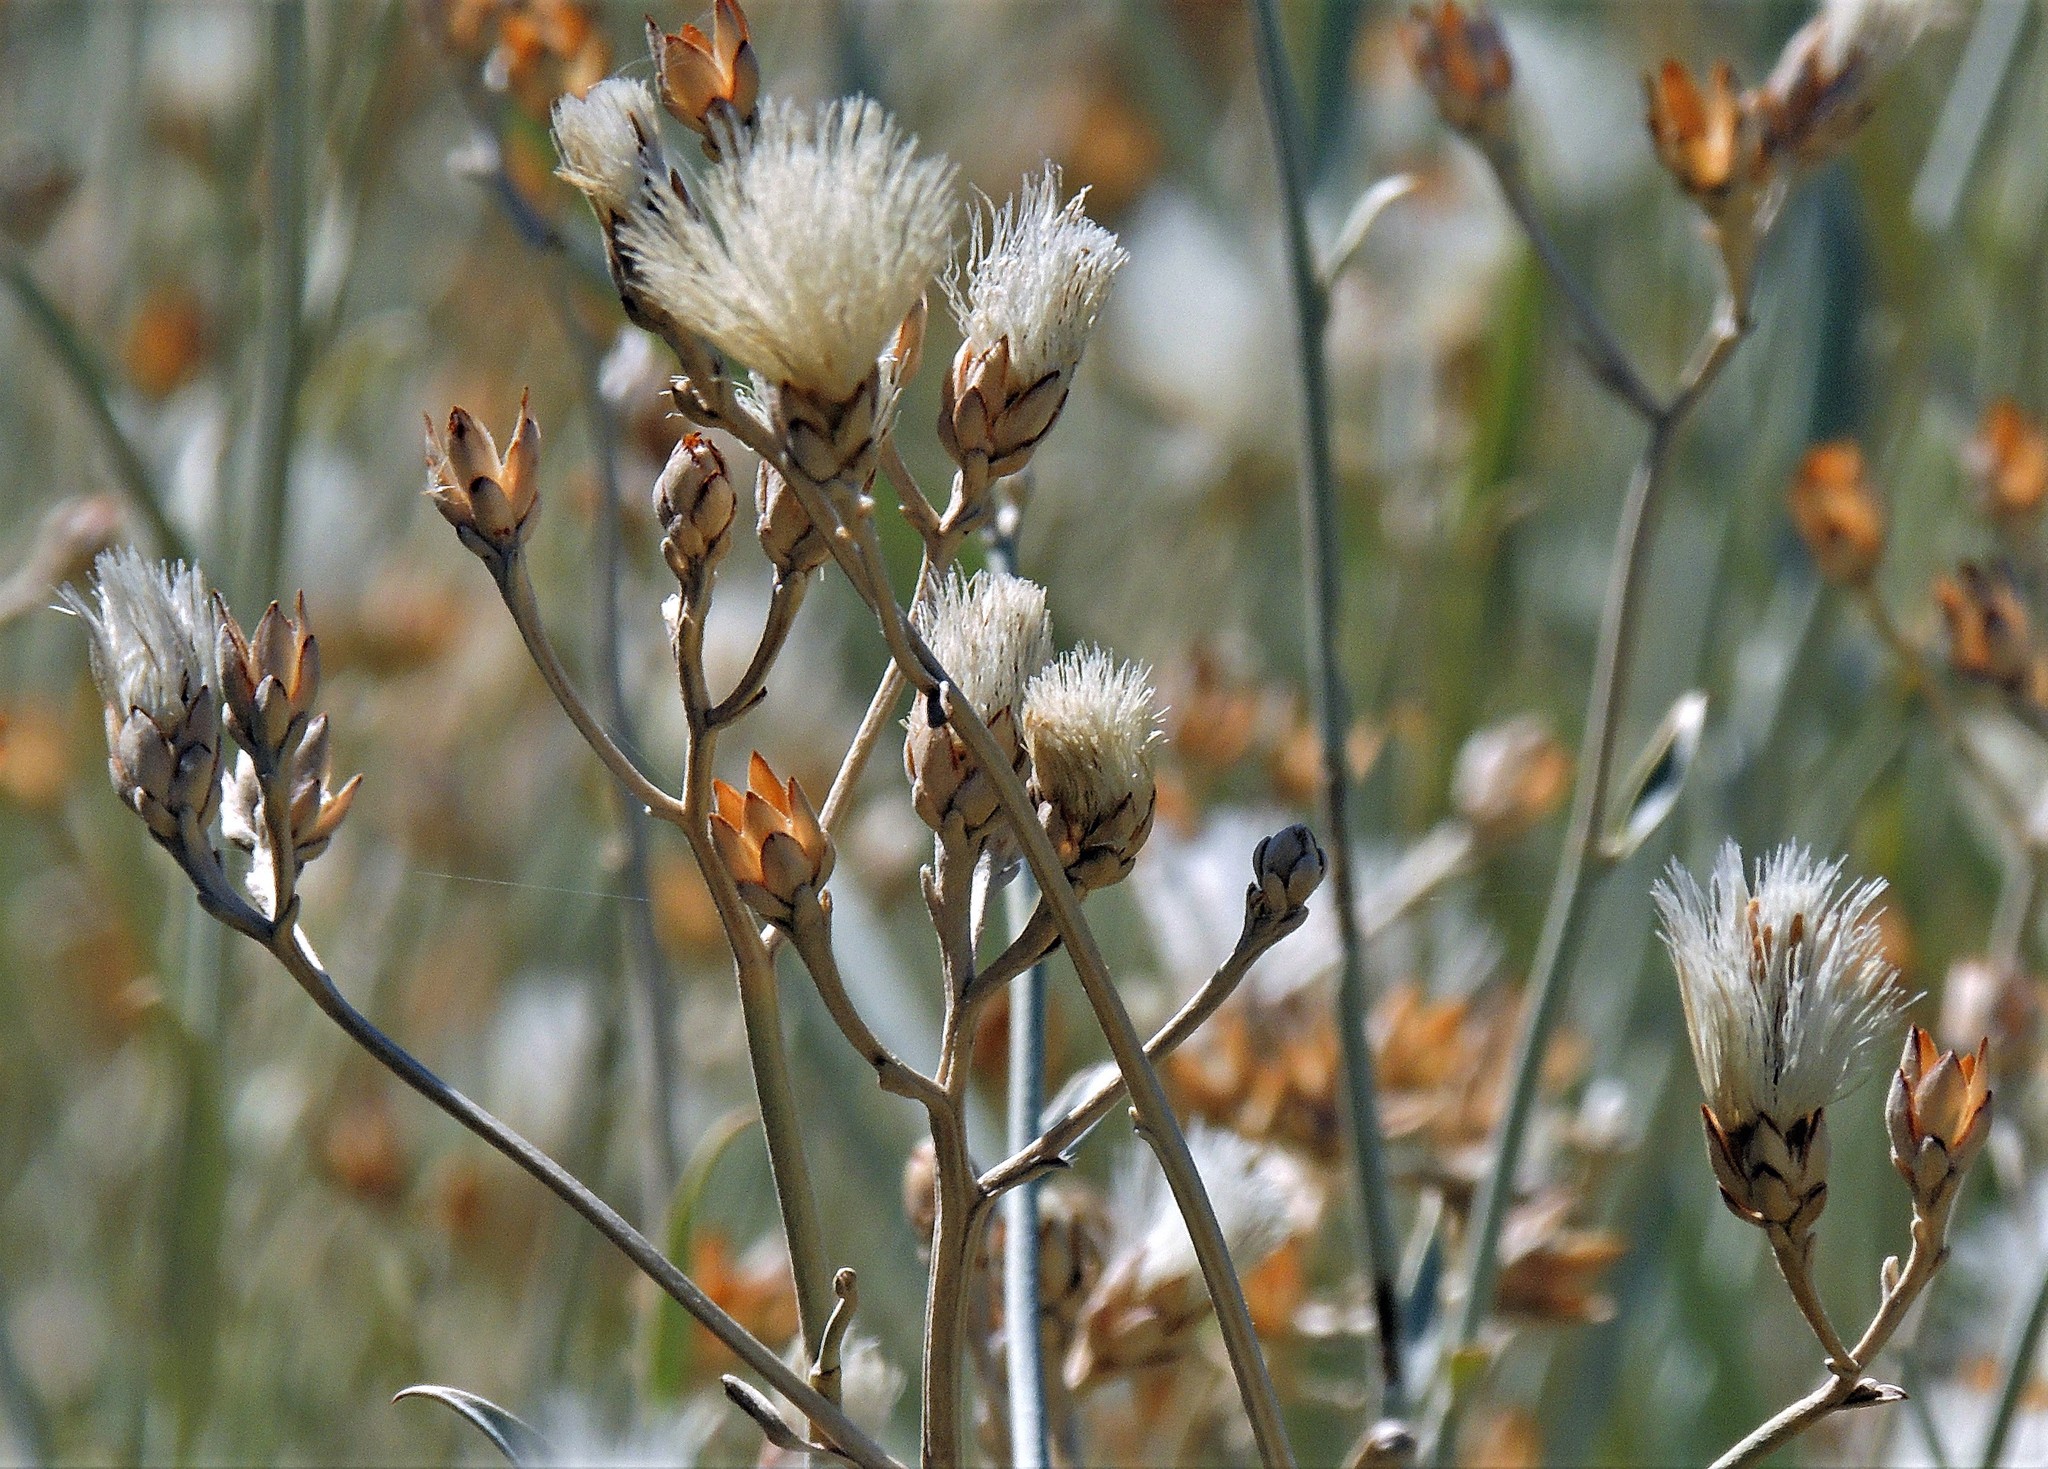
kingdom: Plantae
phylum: Tracheophyta
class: Magnoliopsida
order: Asterales
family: Asteraceae
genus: Hyalis
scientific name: Hyalis argentea
